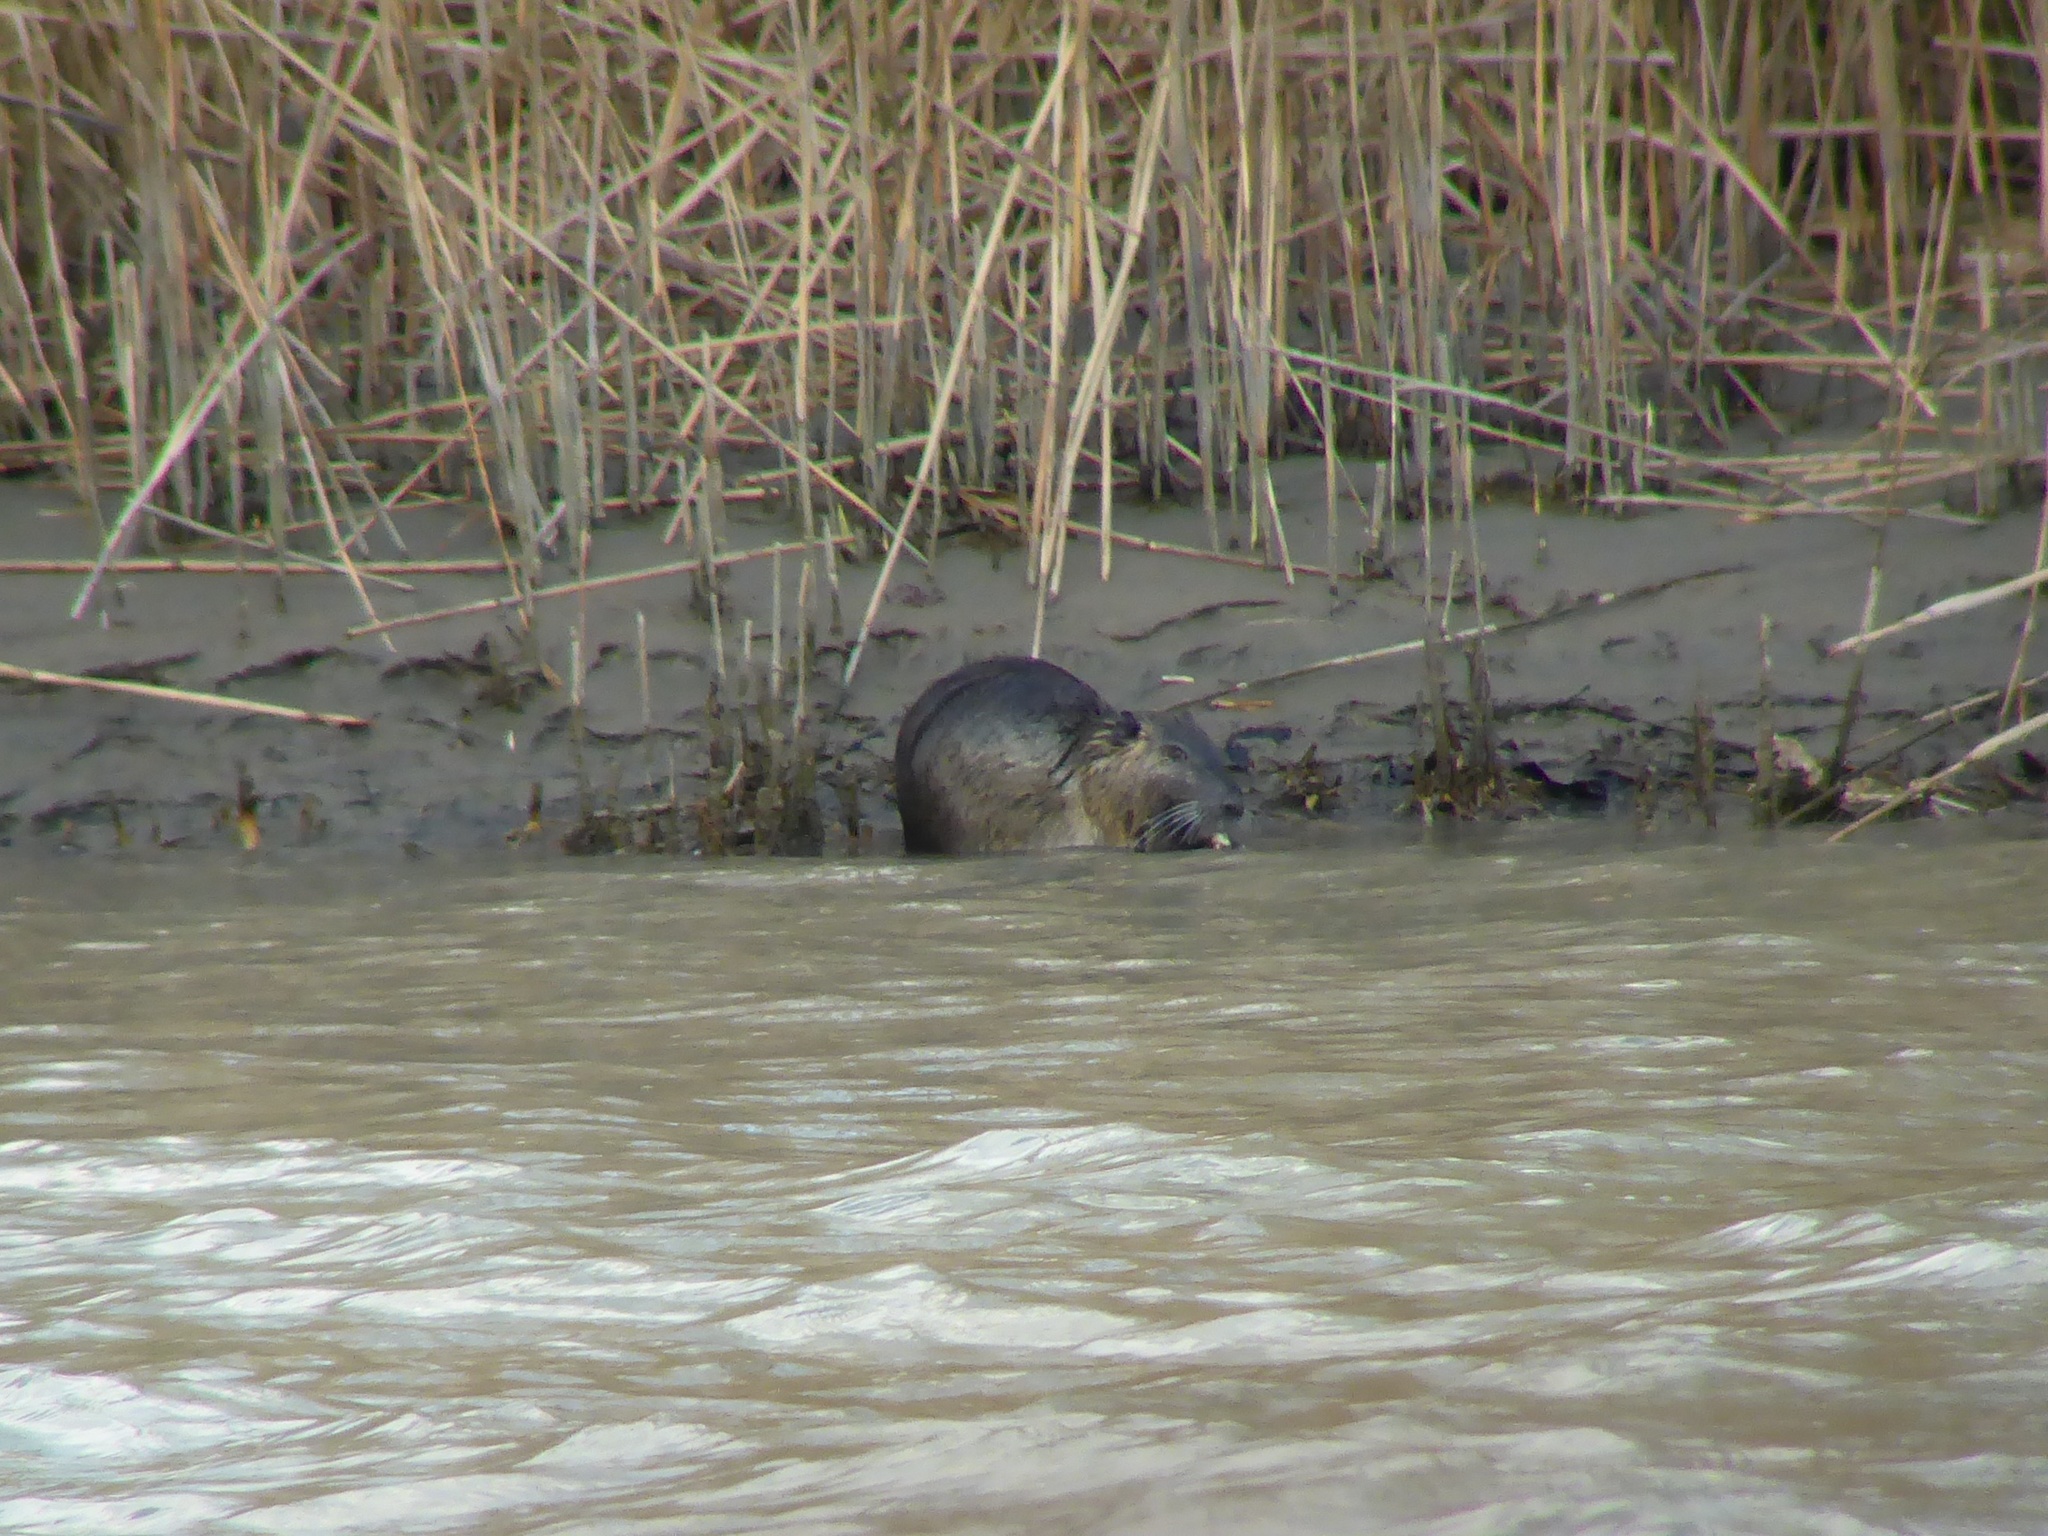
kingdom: Animalia
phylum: Chordata
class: Mammalia
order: Rodentia
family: Myocastoridae
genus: Myocastor
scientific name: Myocastor coypus
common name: Coypu
